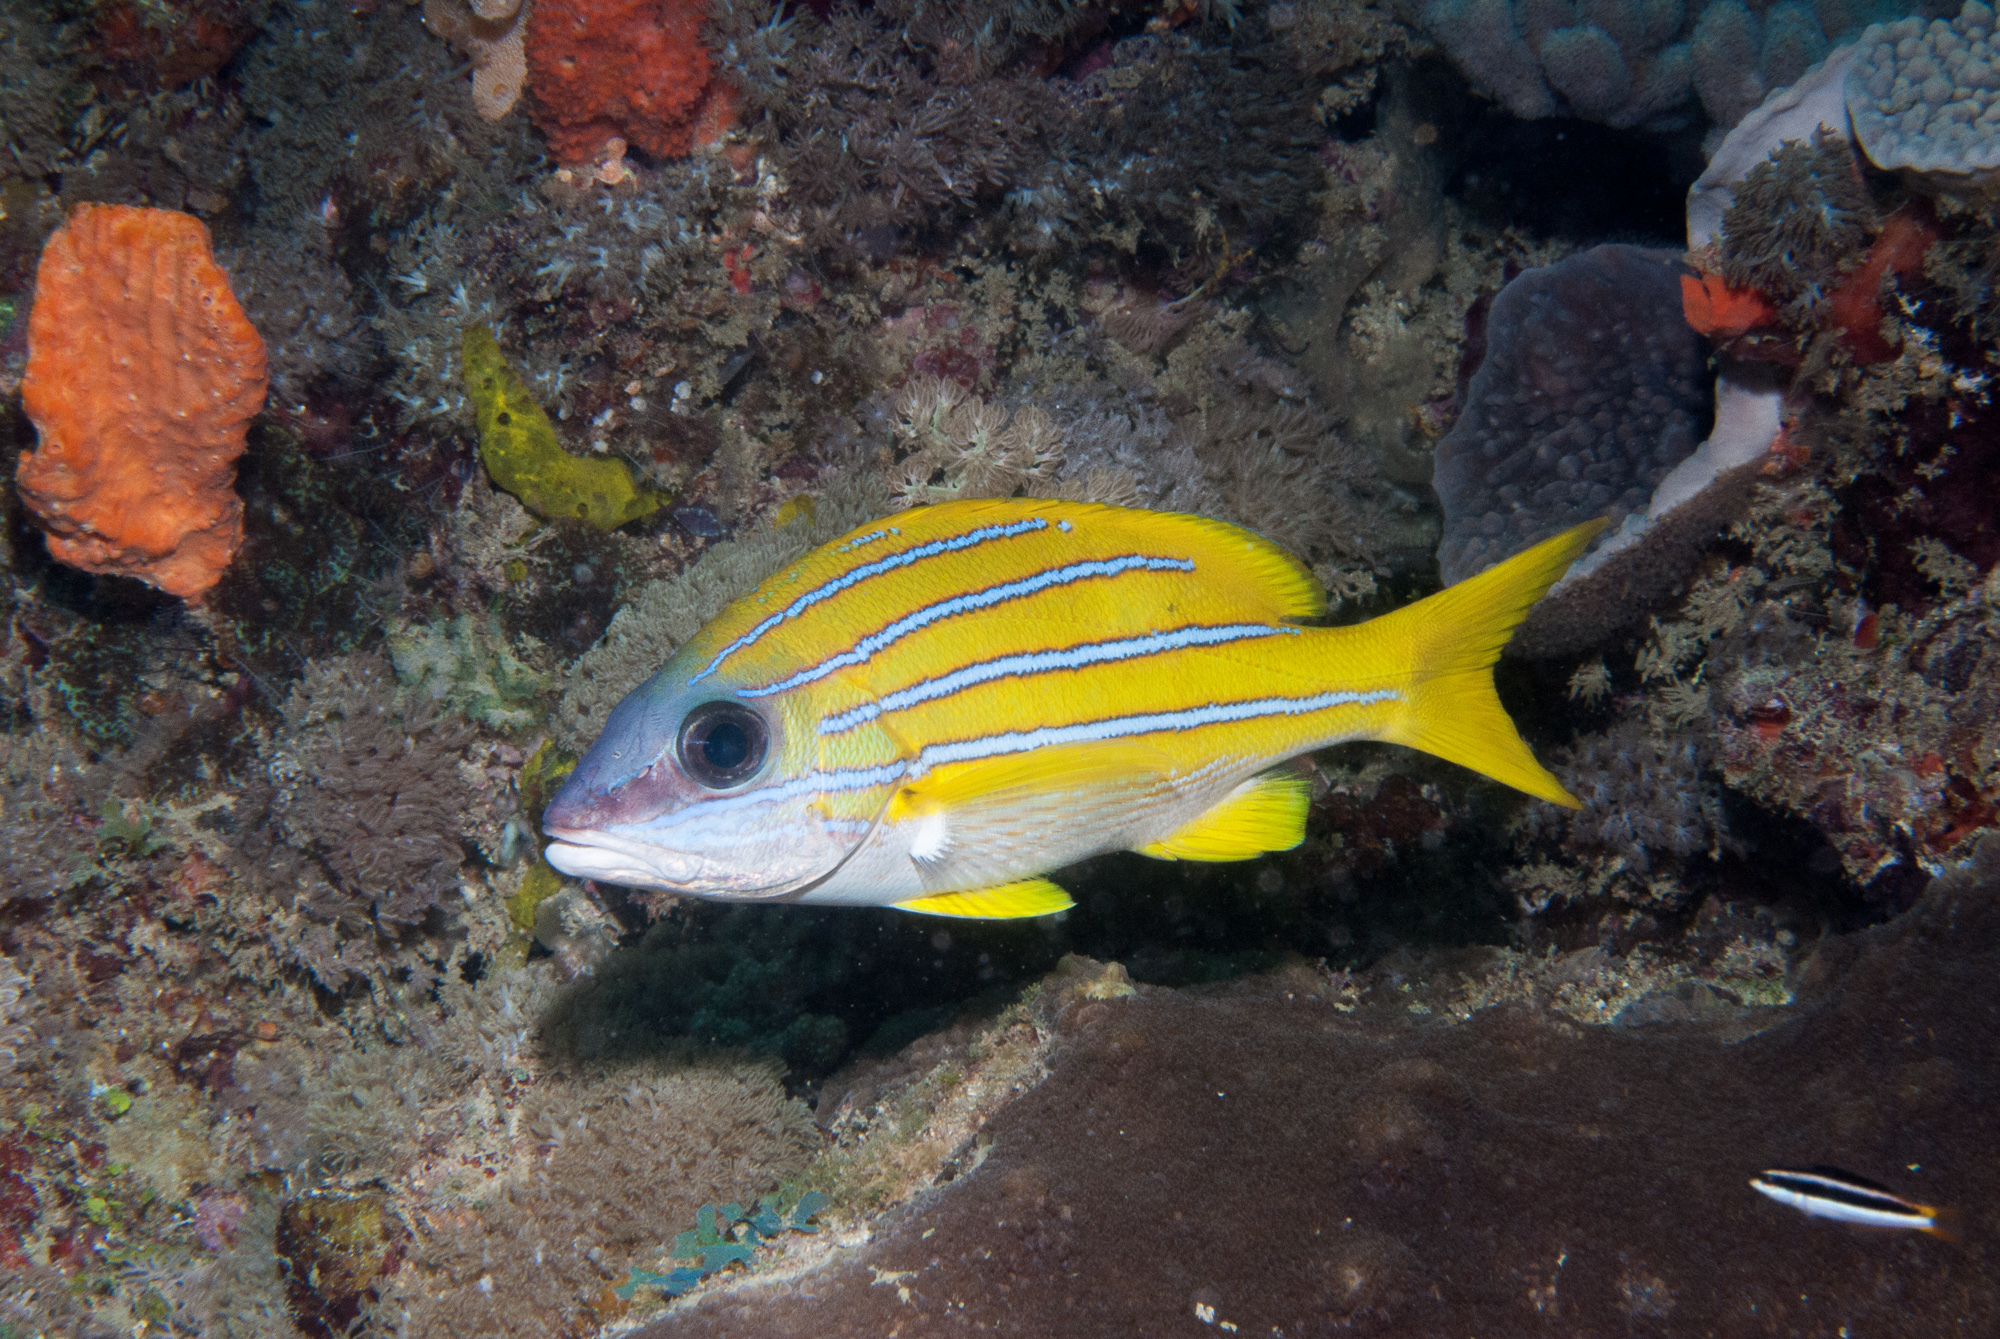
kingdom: Animalia
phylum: Chordata
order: Perciformes
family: Lutjanidae
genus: Lutjanus
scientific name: Lutjanus kasmira
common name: Common bluestripe snapper
